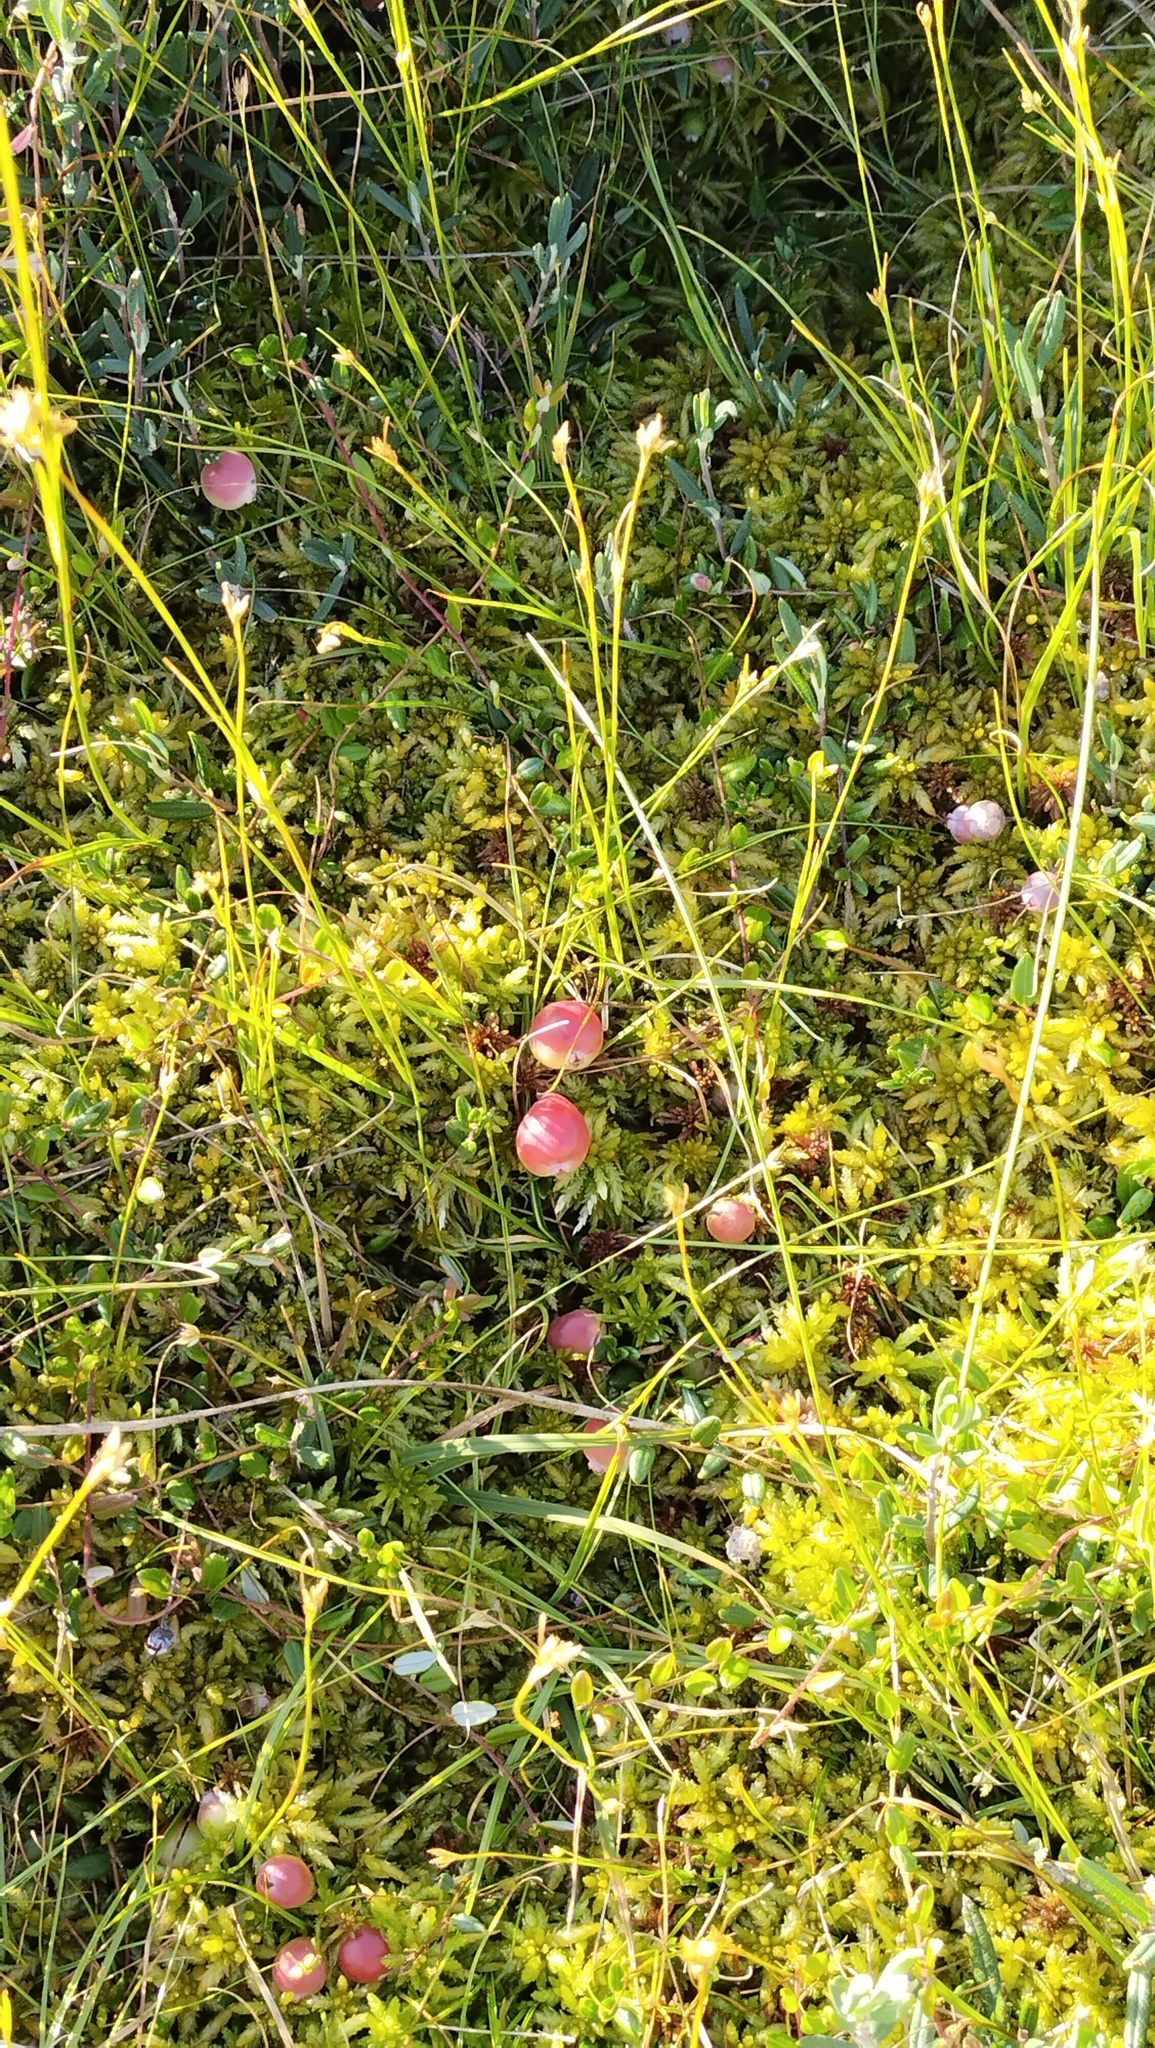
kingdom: Plantae
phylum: Tracheophyta
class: Magnoliopsida
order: Ericales
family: Ericaceae
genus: Vaccinium
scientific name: Vaccinium oxycoccos
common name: Cranberry
